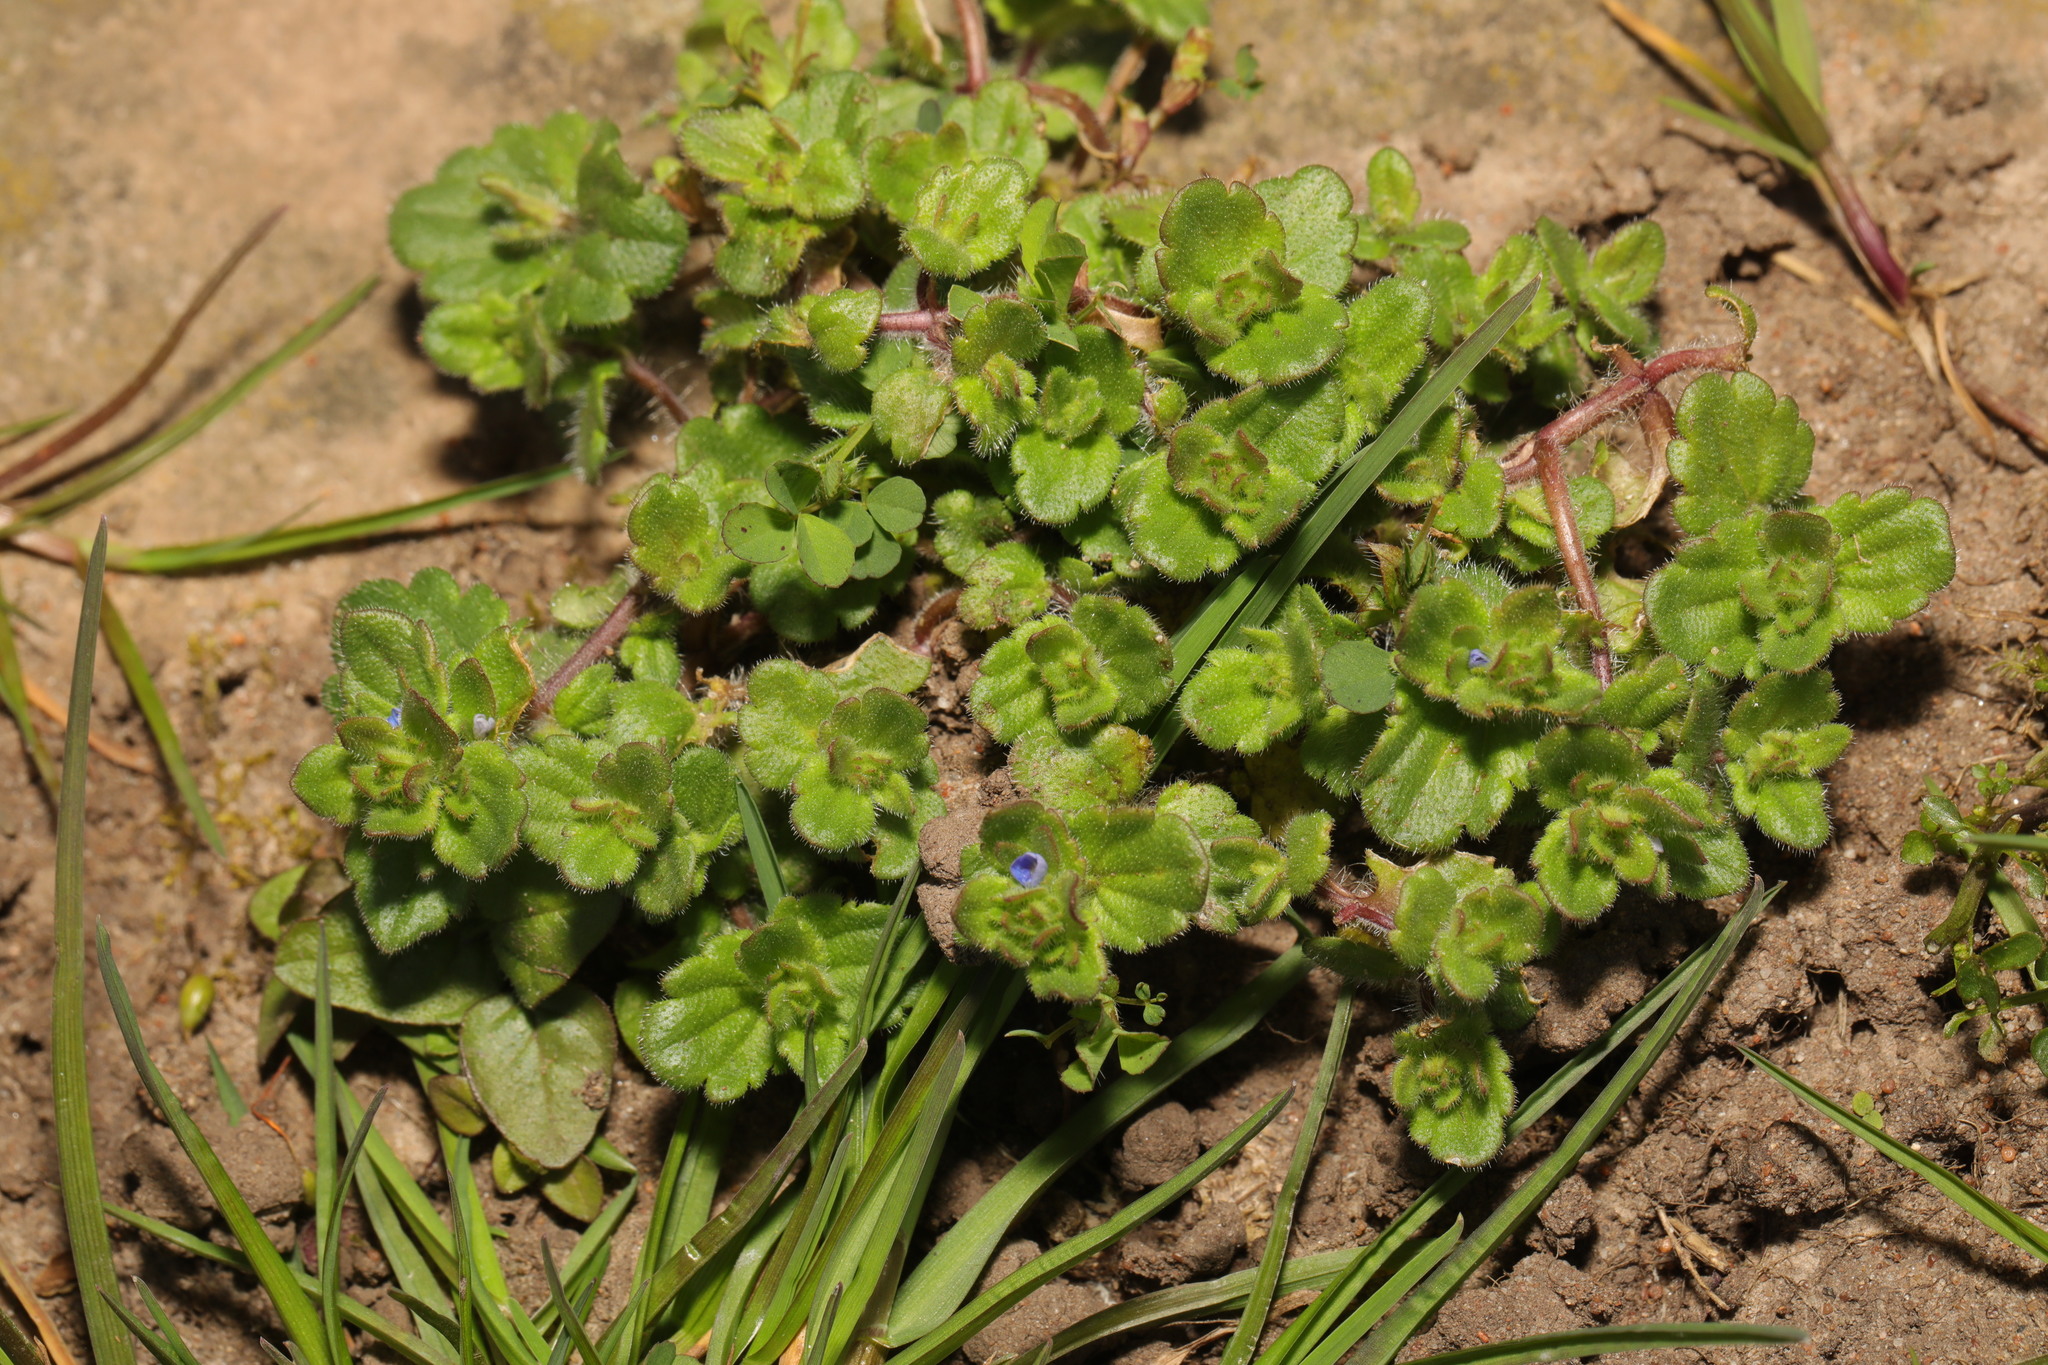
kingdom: Plantae
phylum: Tracheophyta
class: Magnoliopsida
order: Lamiales
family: Plantaginaceae
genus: Veronica
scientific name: Veronica arvensis
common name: Corn speedwell
